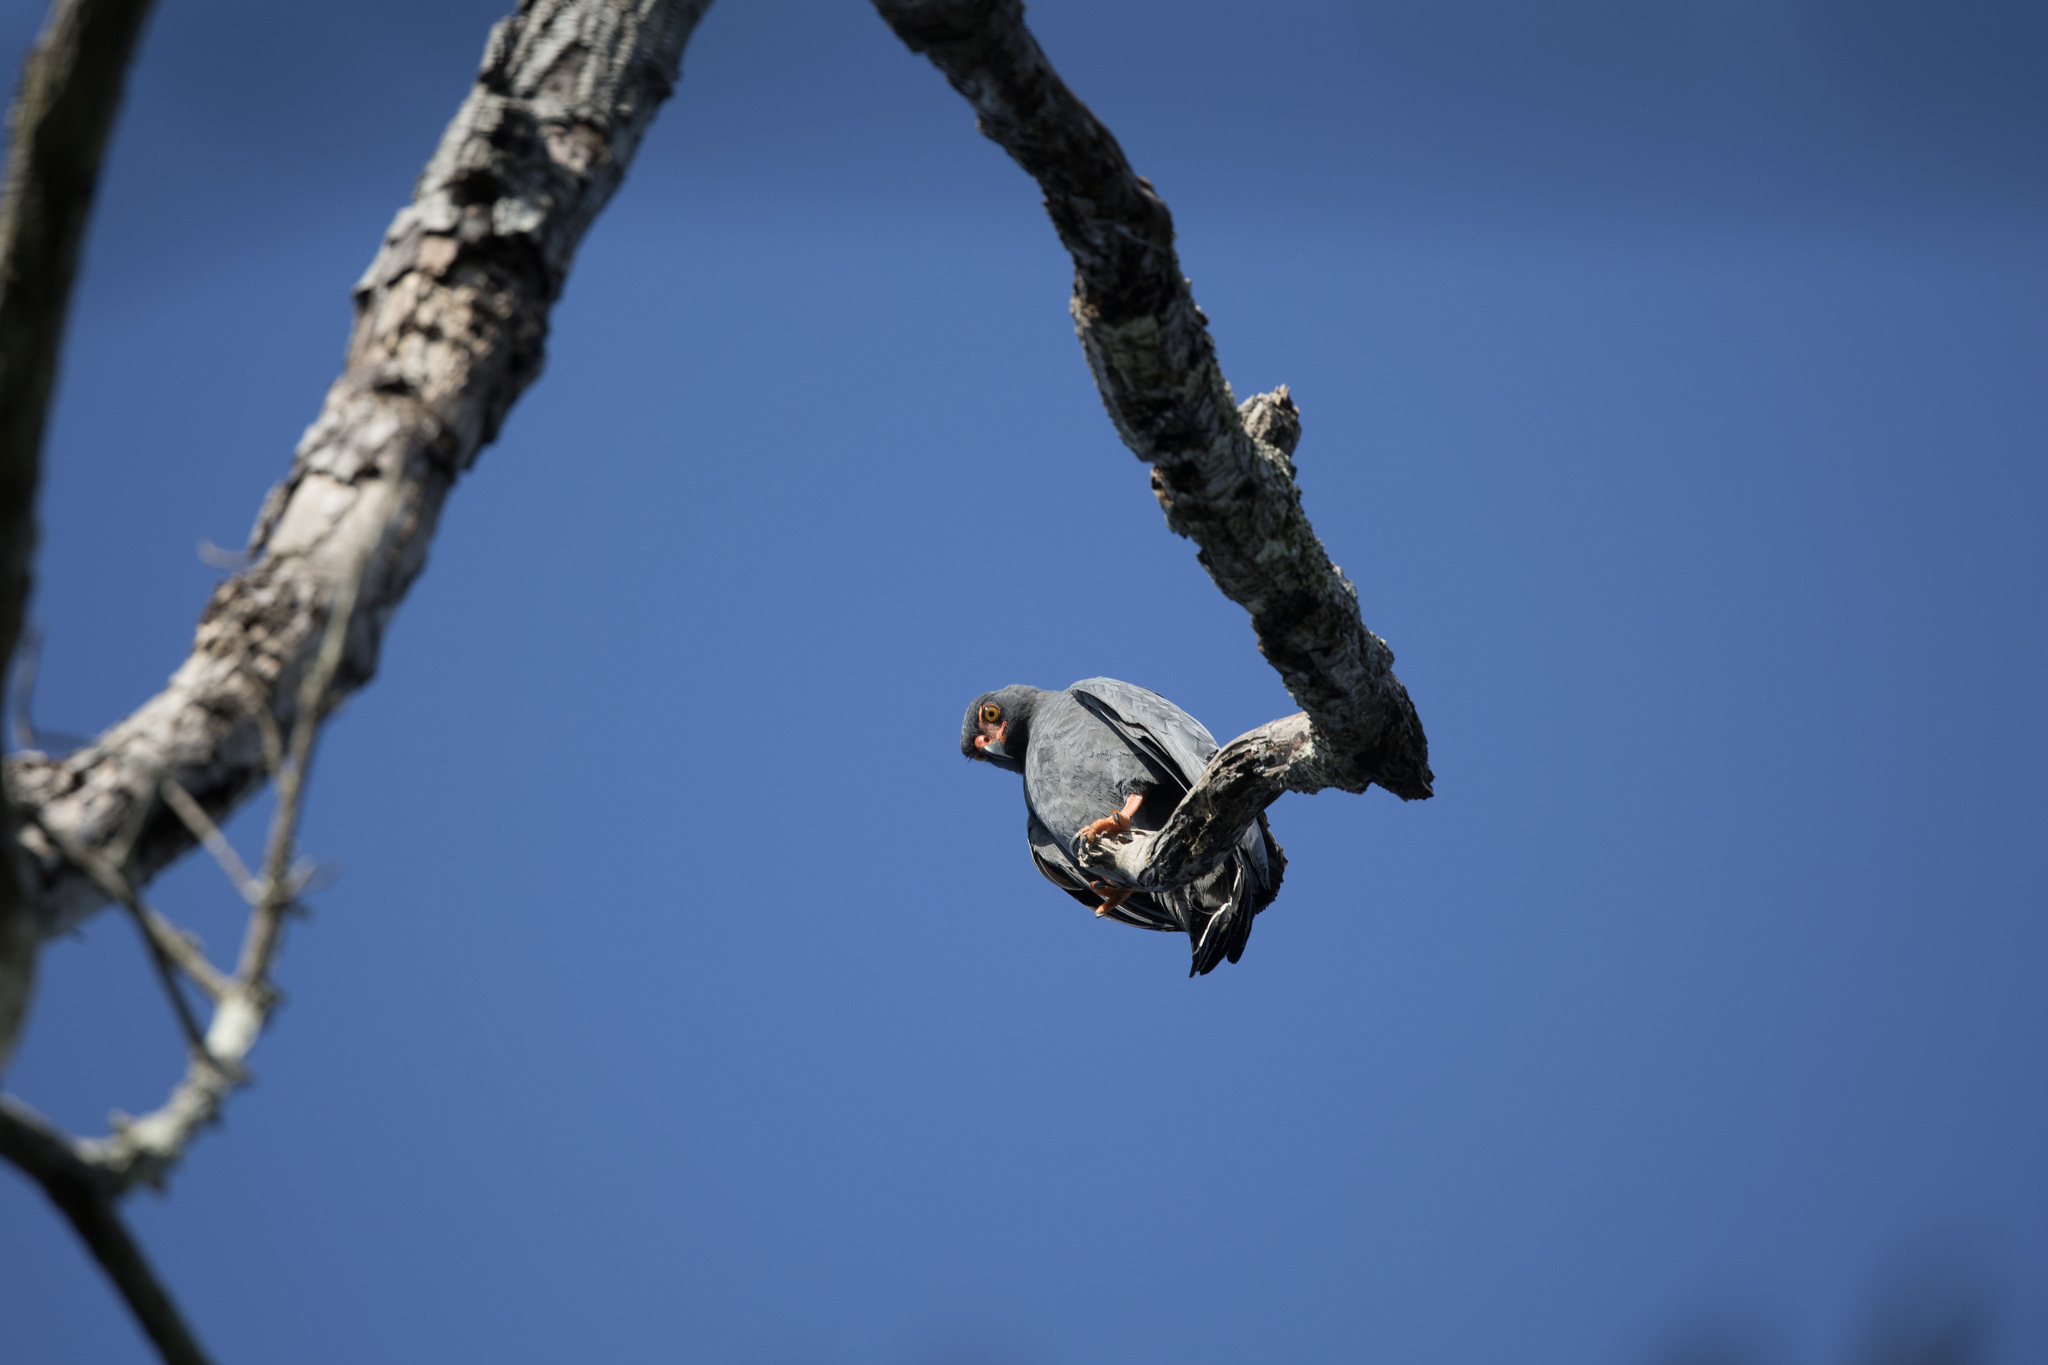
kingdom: Animalia
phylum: Chordata
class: Aves
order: Accipitriformes
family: Accipitridae
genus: Leucopternis
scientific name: Leucopternis schistaceus
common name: Slate-colored hawk
